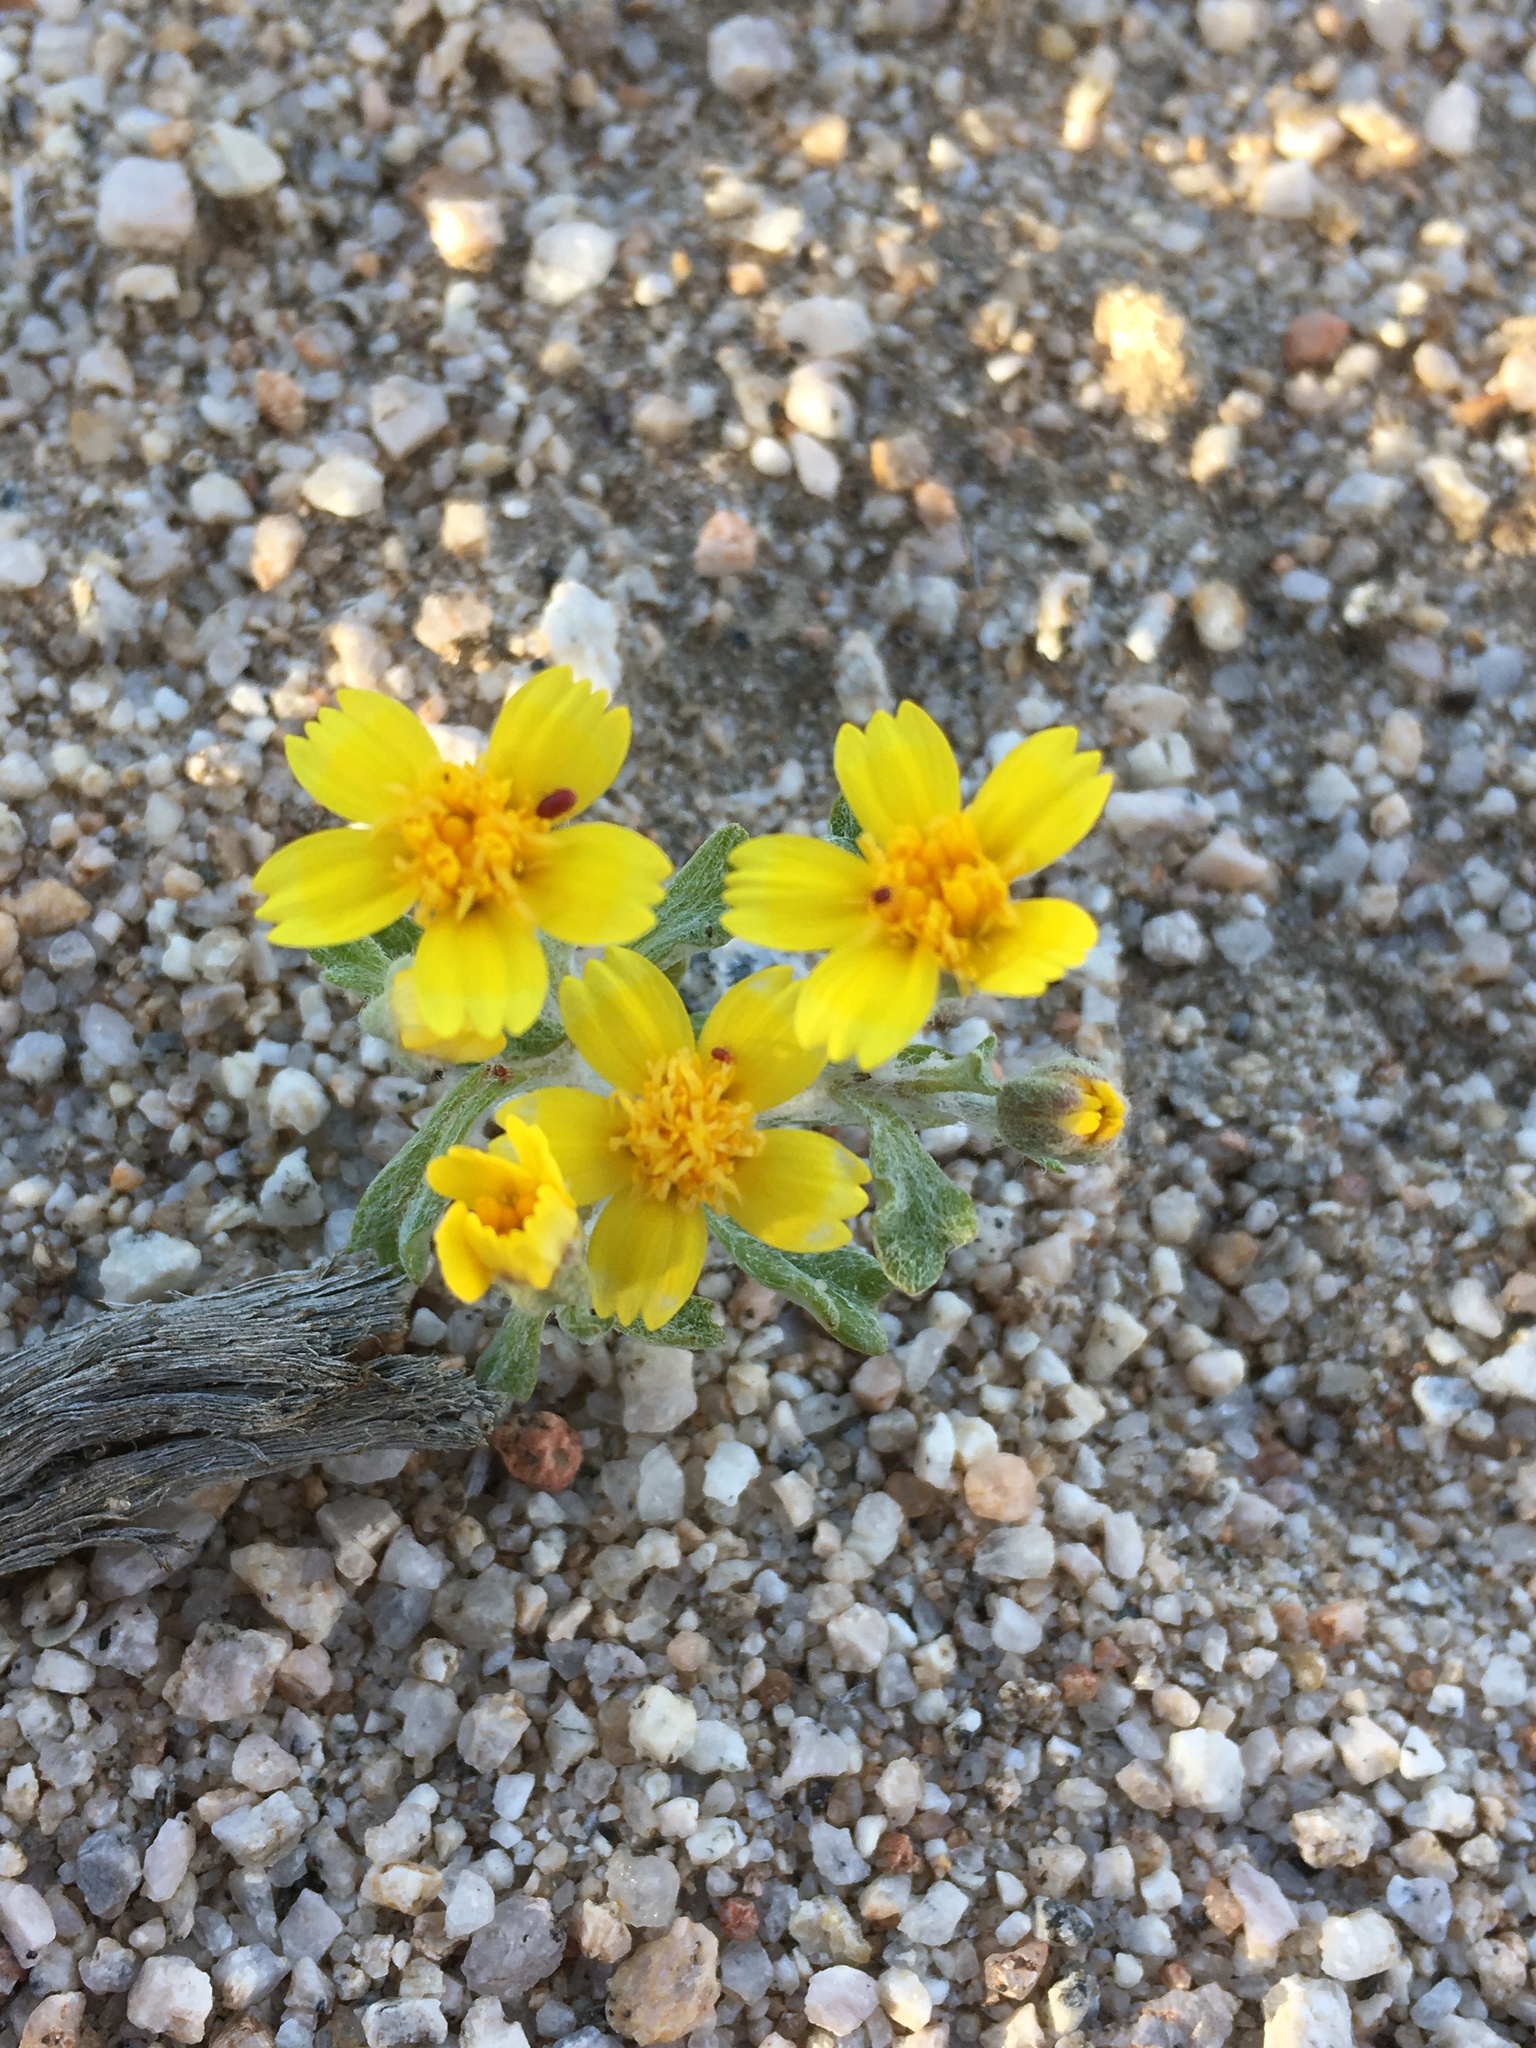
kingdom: Plantae
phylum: Tracheophyta
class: Magnoliopsida
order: Asterales
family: Asteraceae
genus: Syntrichopappus
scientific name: Syntrichopappus fremontii
